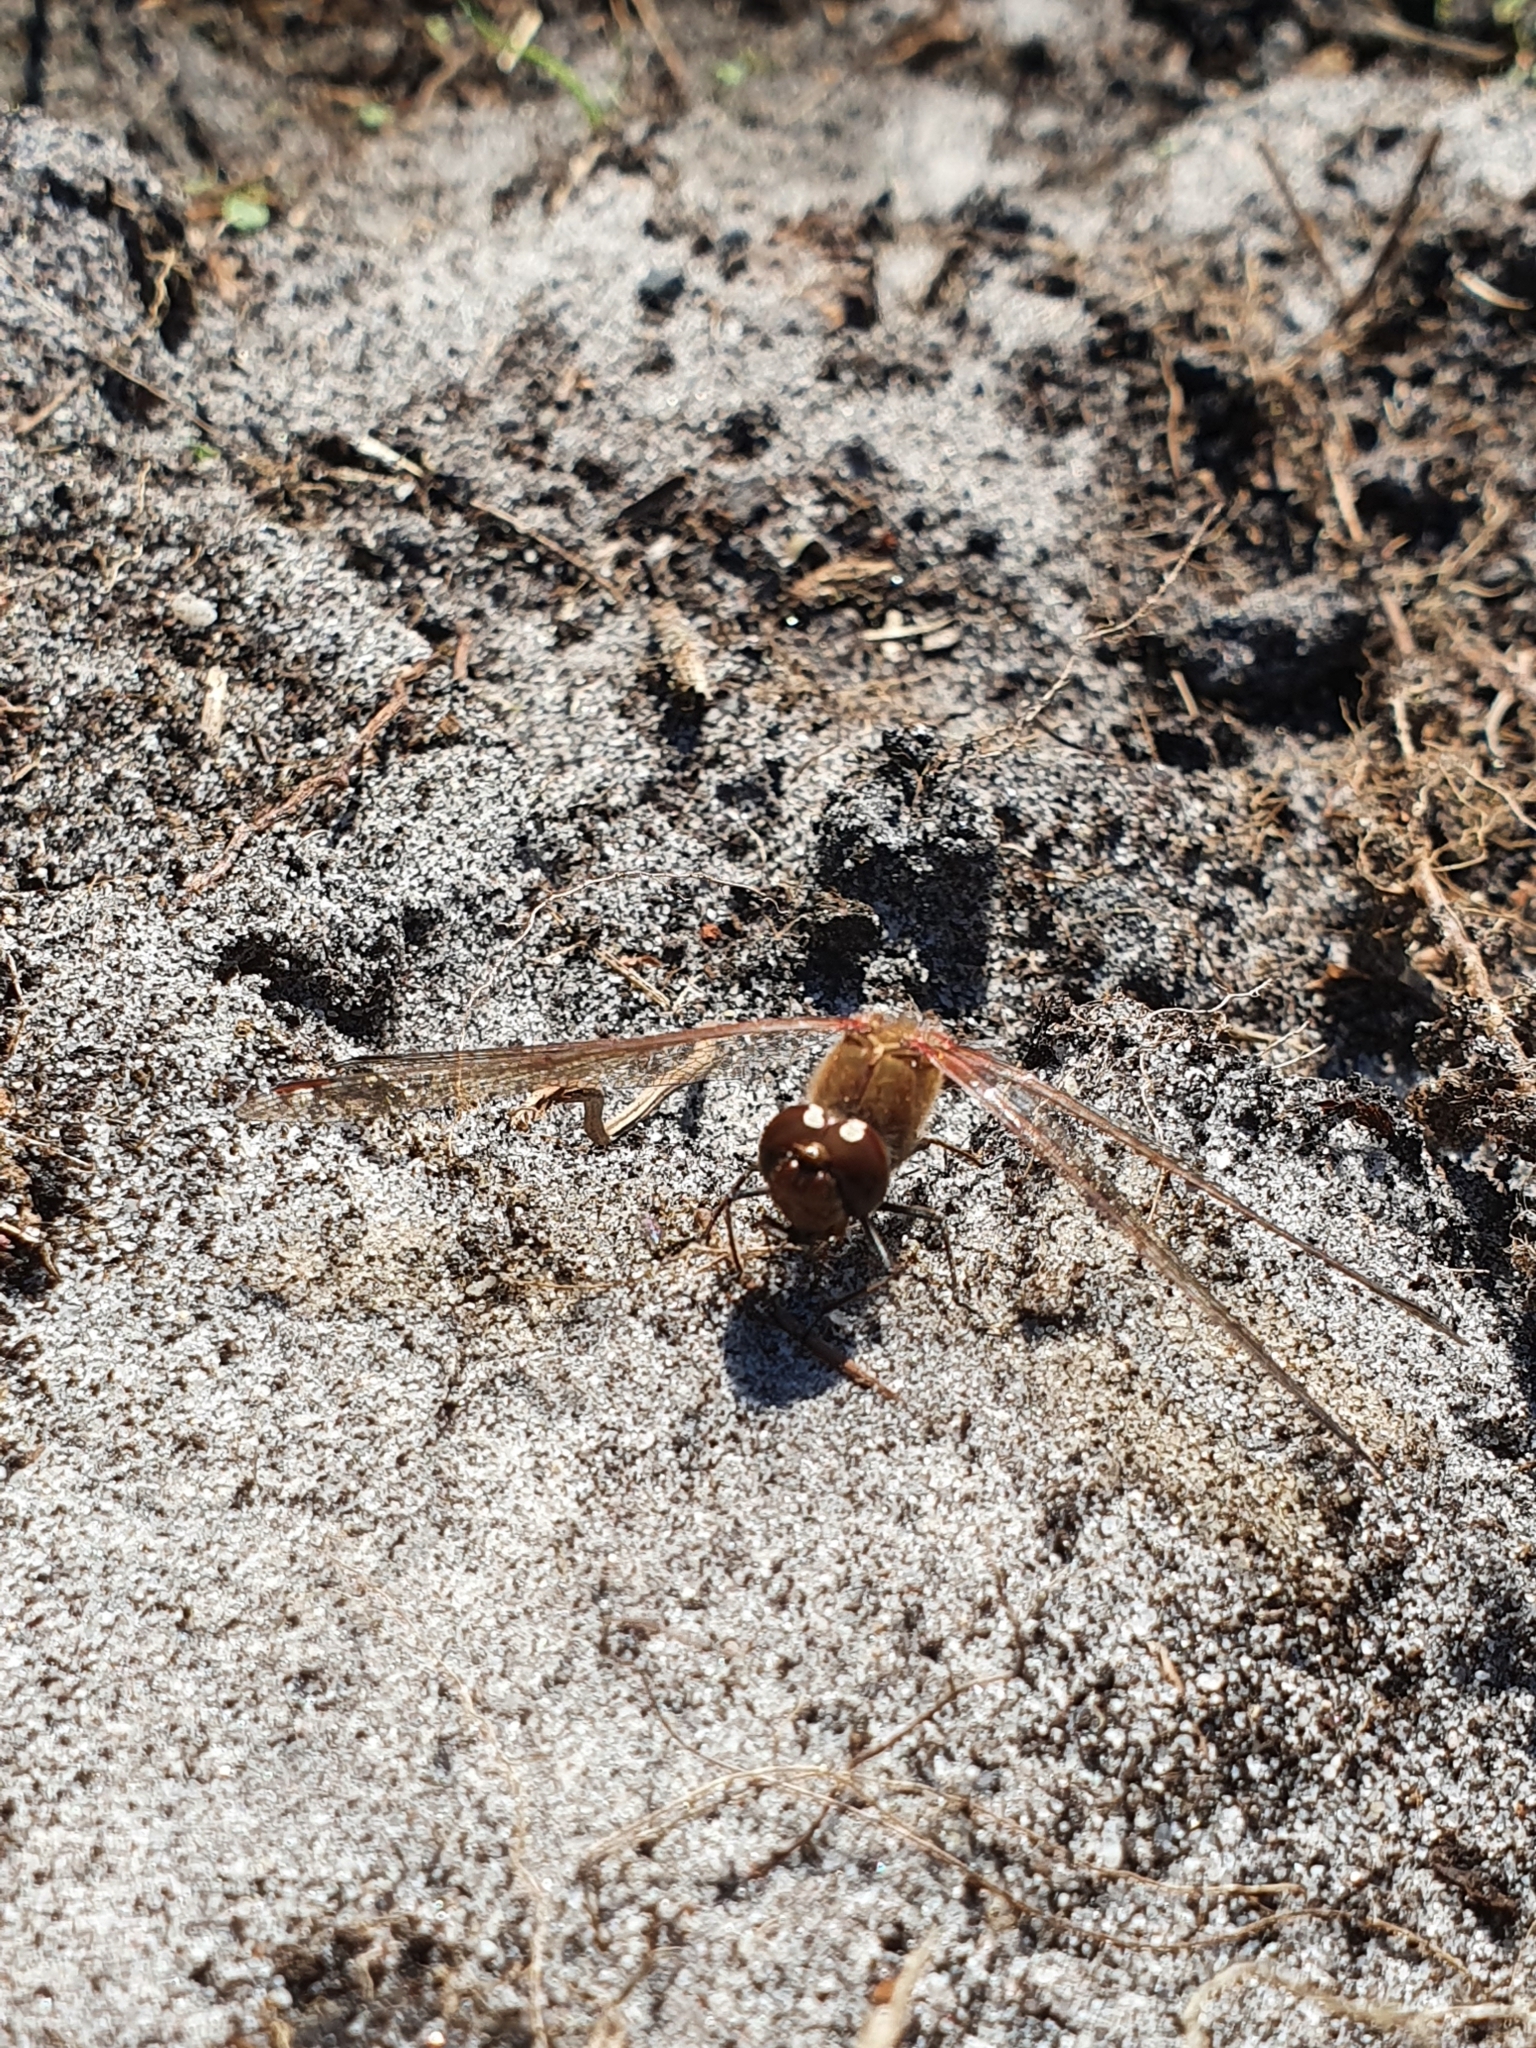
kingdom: Animalia
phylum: Arthropoda
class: Insecta
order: Odonata
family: Libellulidae
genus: Sympetrum
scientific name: Sympetrum striolatum
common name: Common darter
